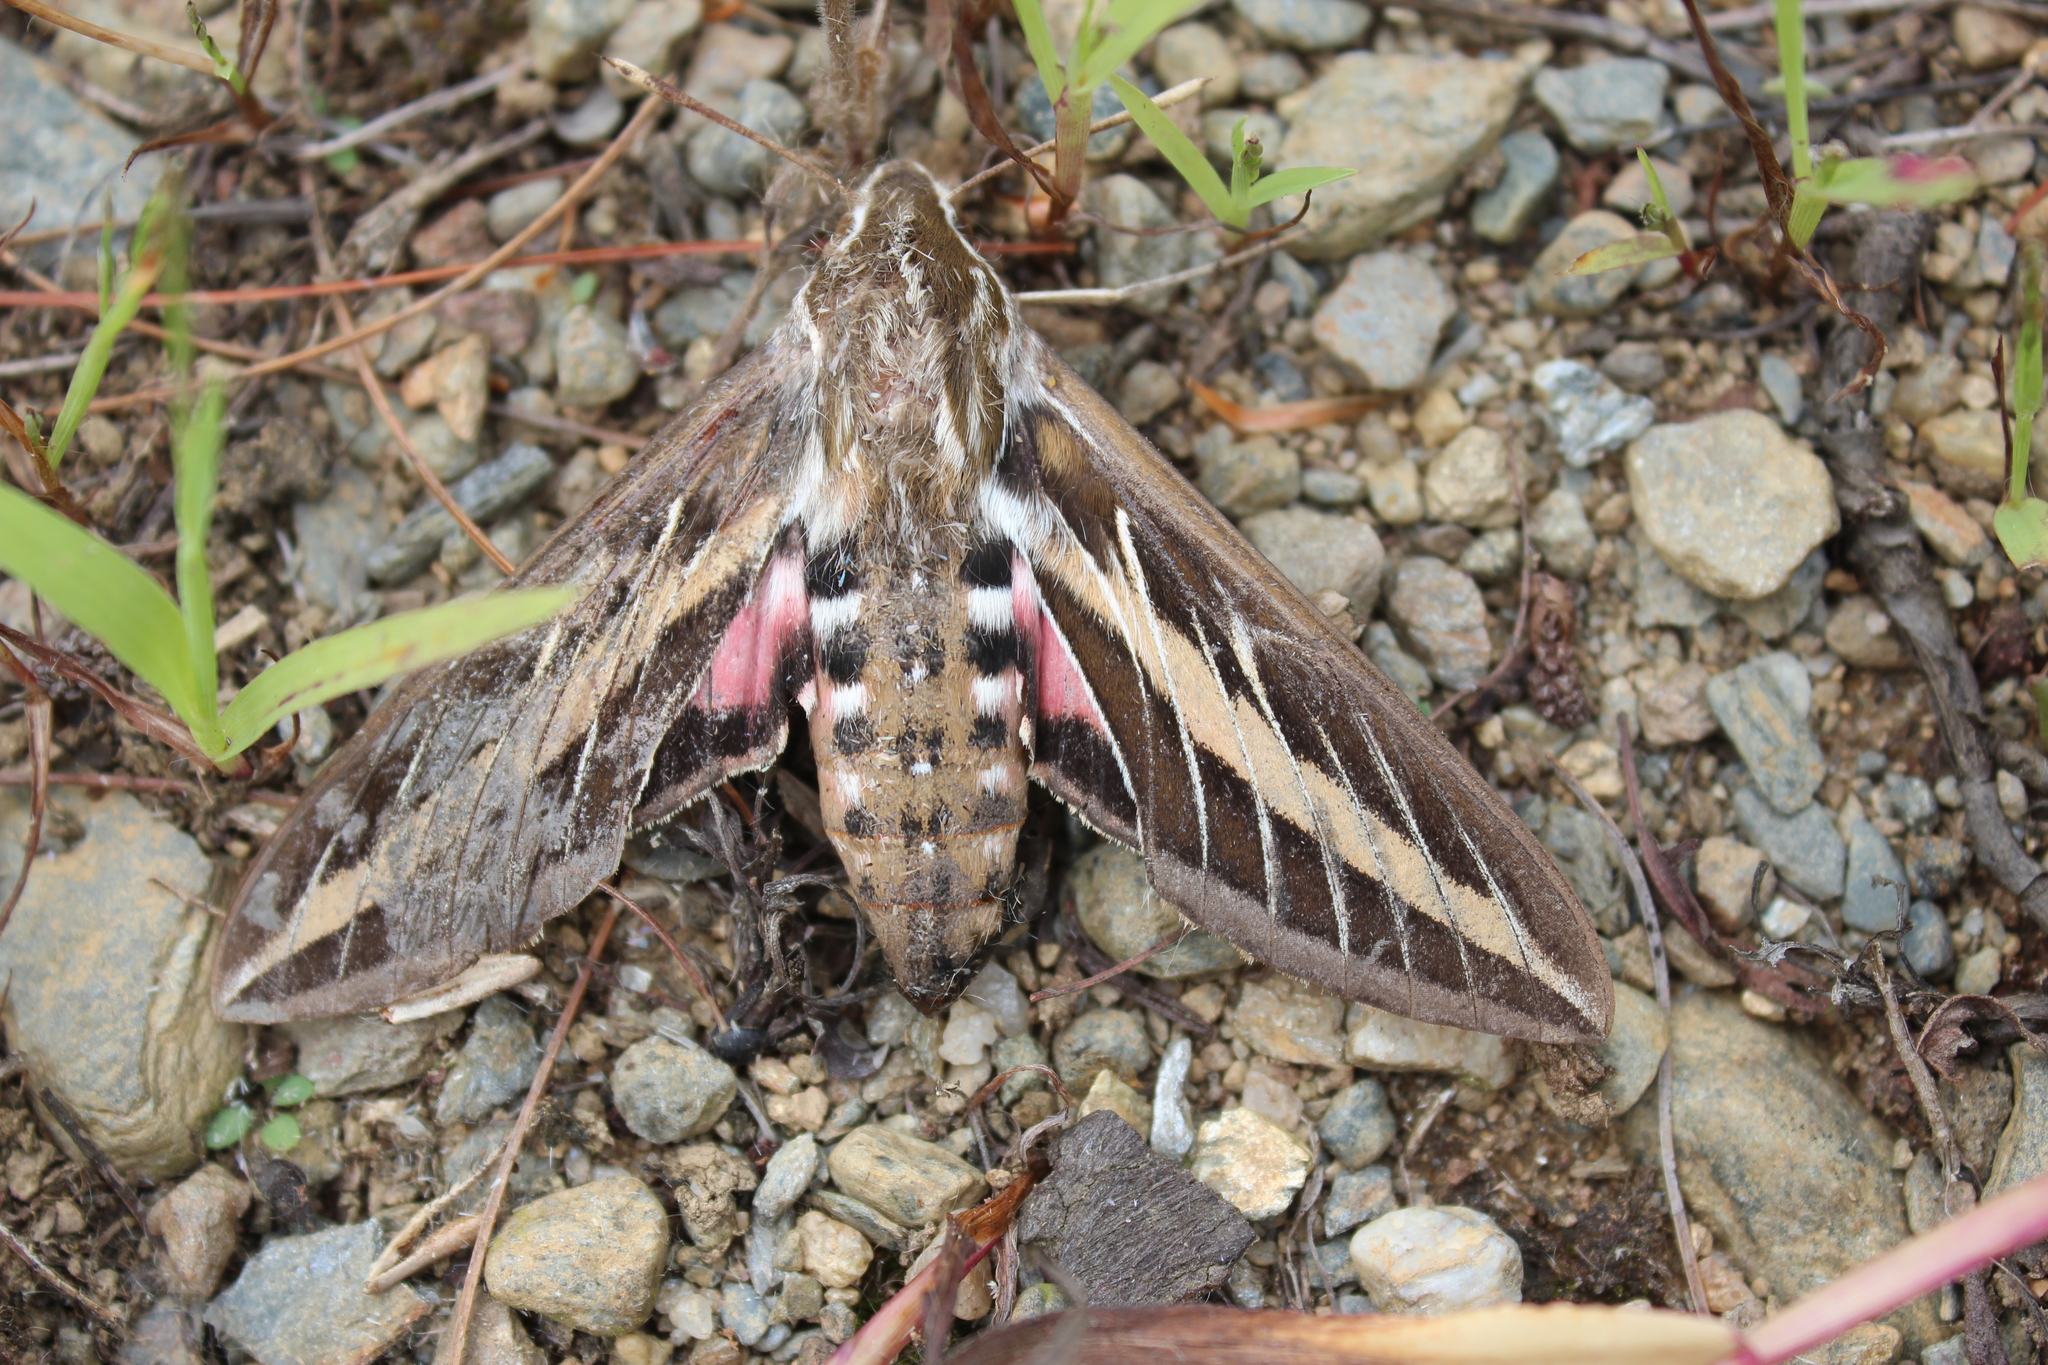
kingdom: Animalia
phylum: Arthropoda
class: Insecta
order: Lepidoptera
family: Sphingidae
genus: Hyles
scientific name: Hyles lineata
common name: White-lined sphinx
